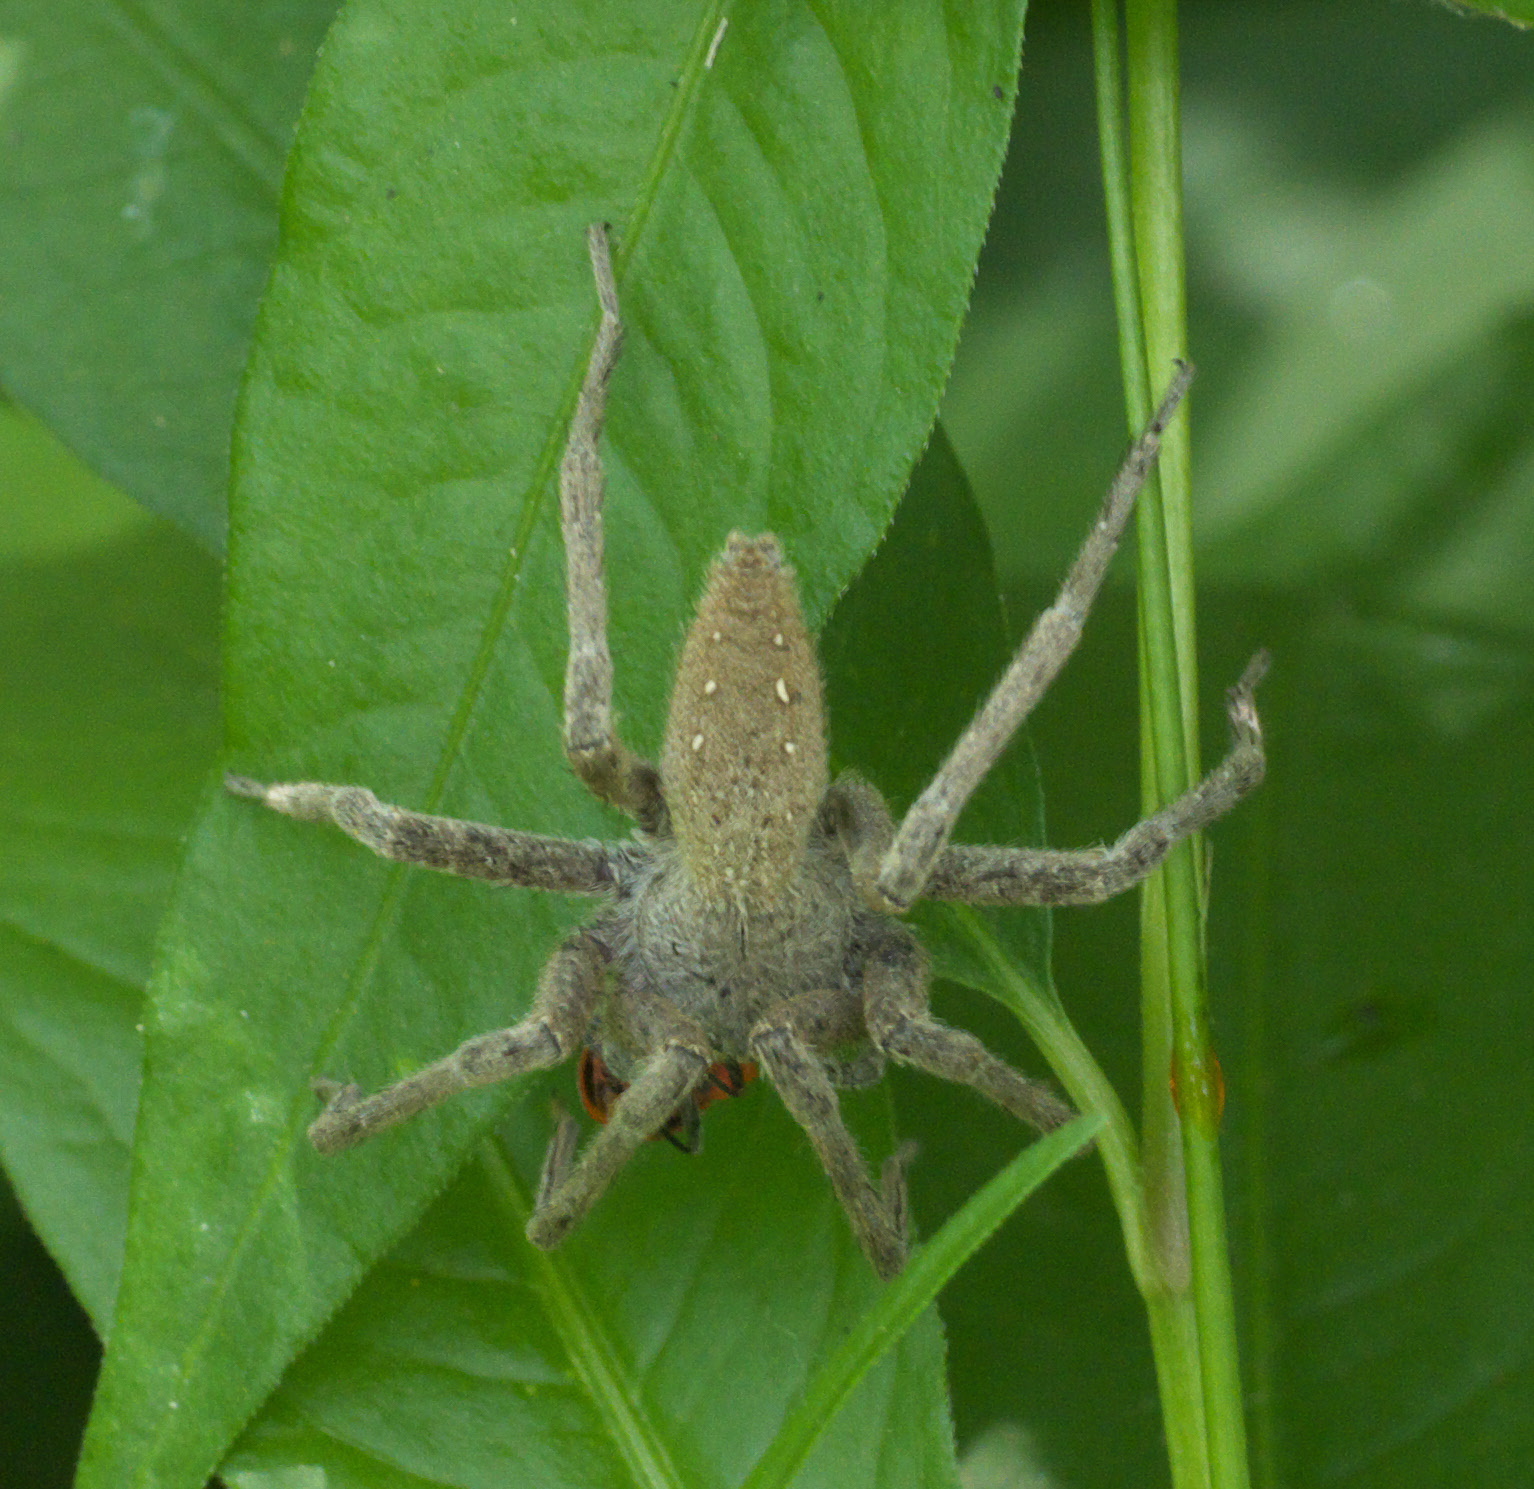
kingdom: Animalia
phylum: Arthropoda
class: Arachnida
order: Araneae
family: Pisauridae
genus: Pisaurina
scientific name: Pisaurina mira
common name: American nursery web spider
